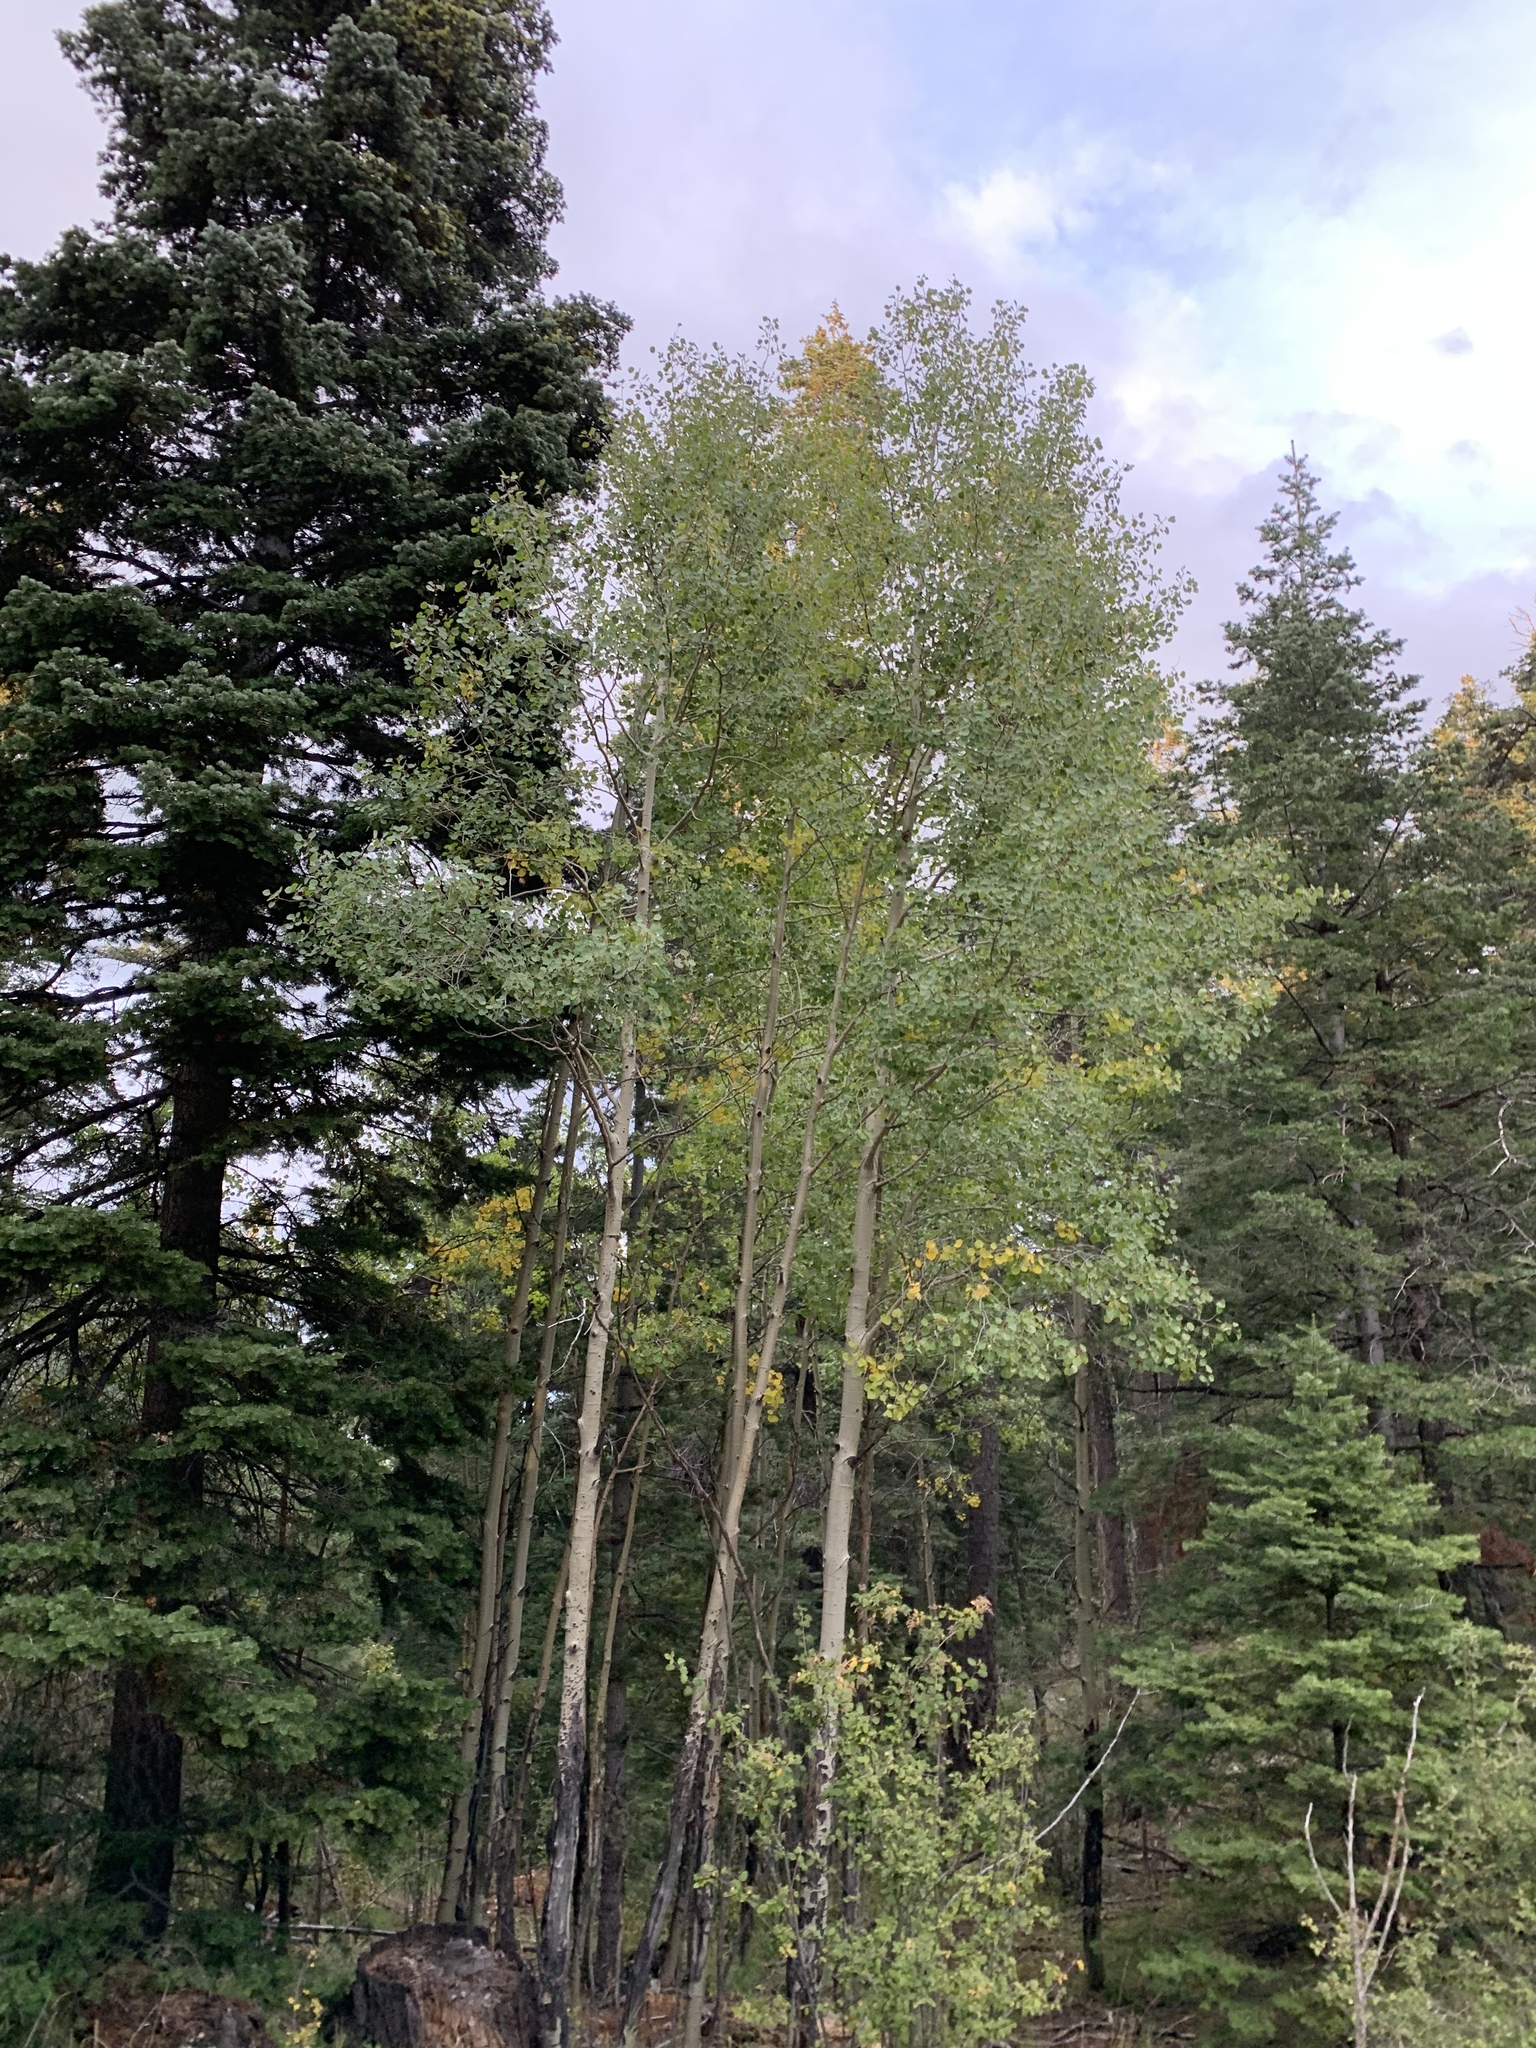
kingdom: Plantae
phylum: Tracheophyta
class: Magnoliopsida
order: Malpighiales
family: Salicaceae
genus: Populus
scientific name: Populus tremuloides
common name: Quaking aspen
